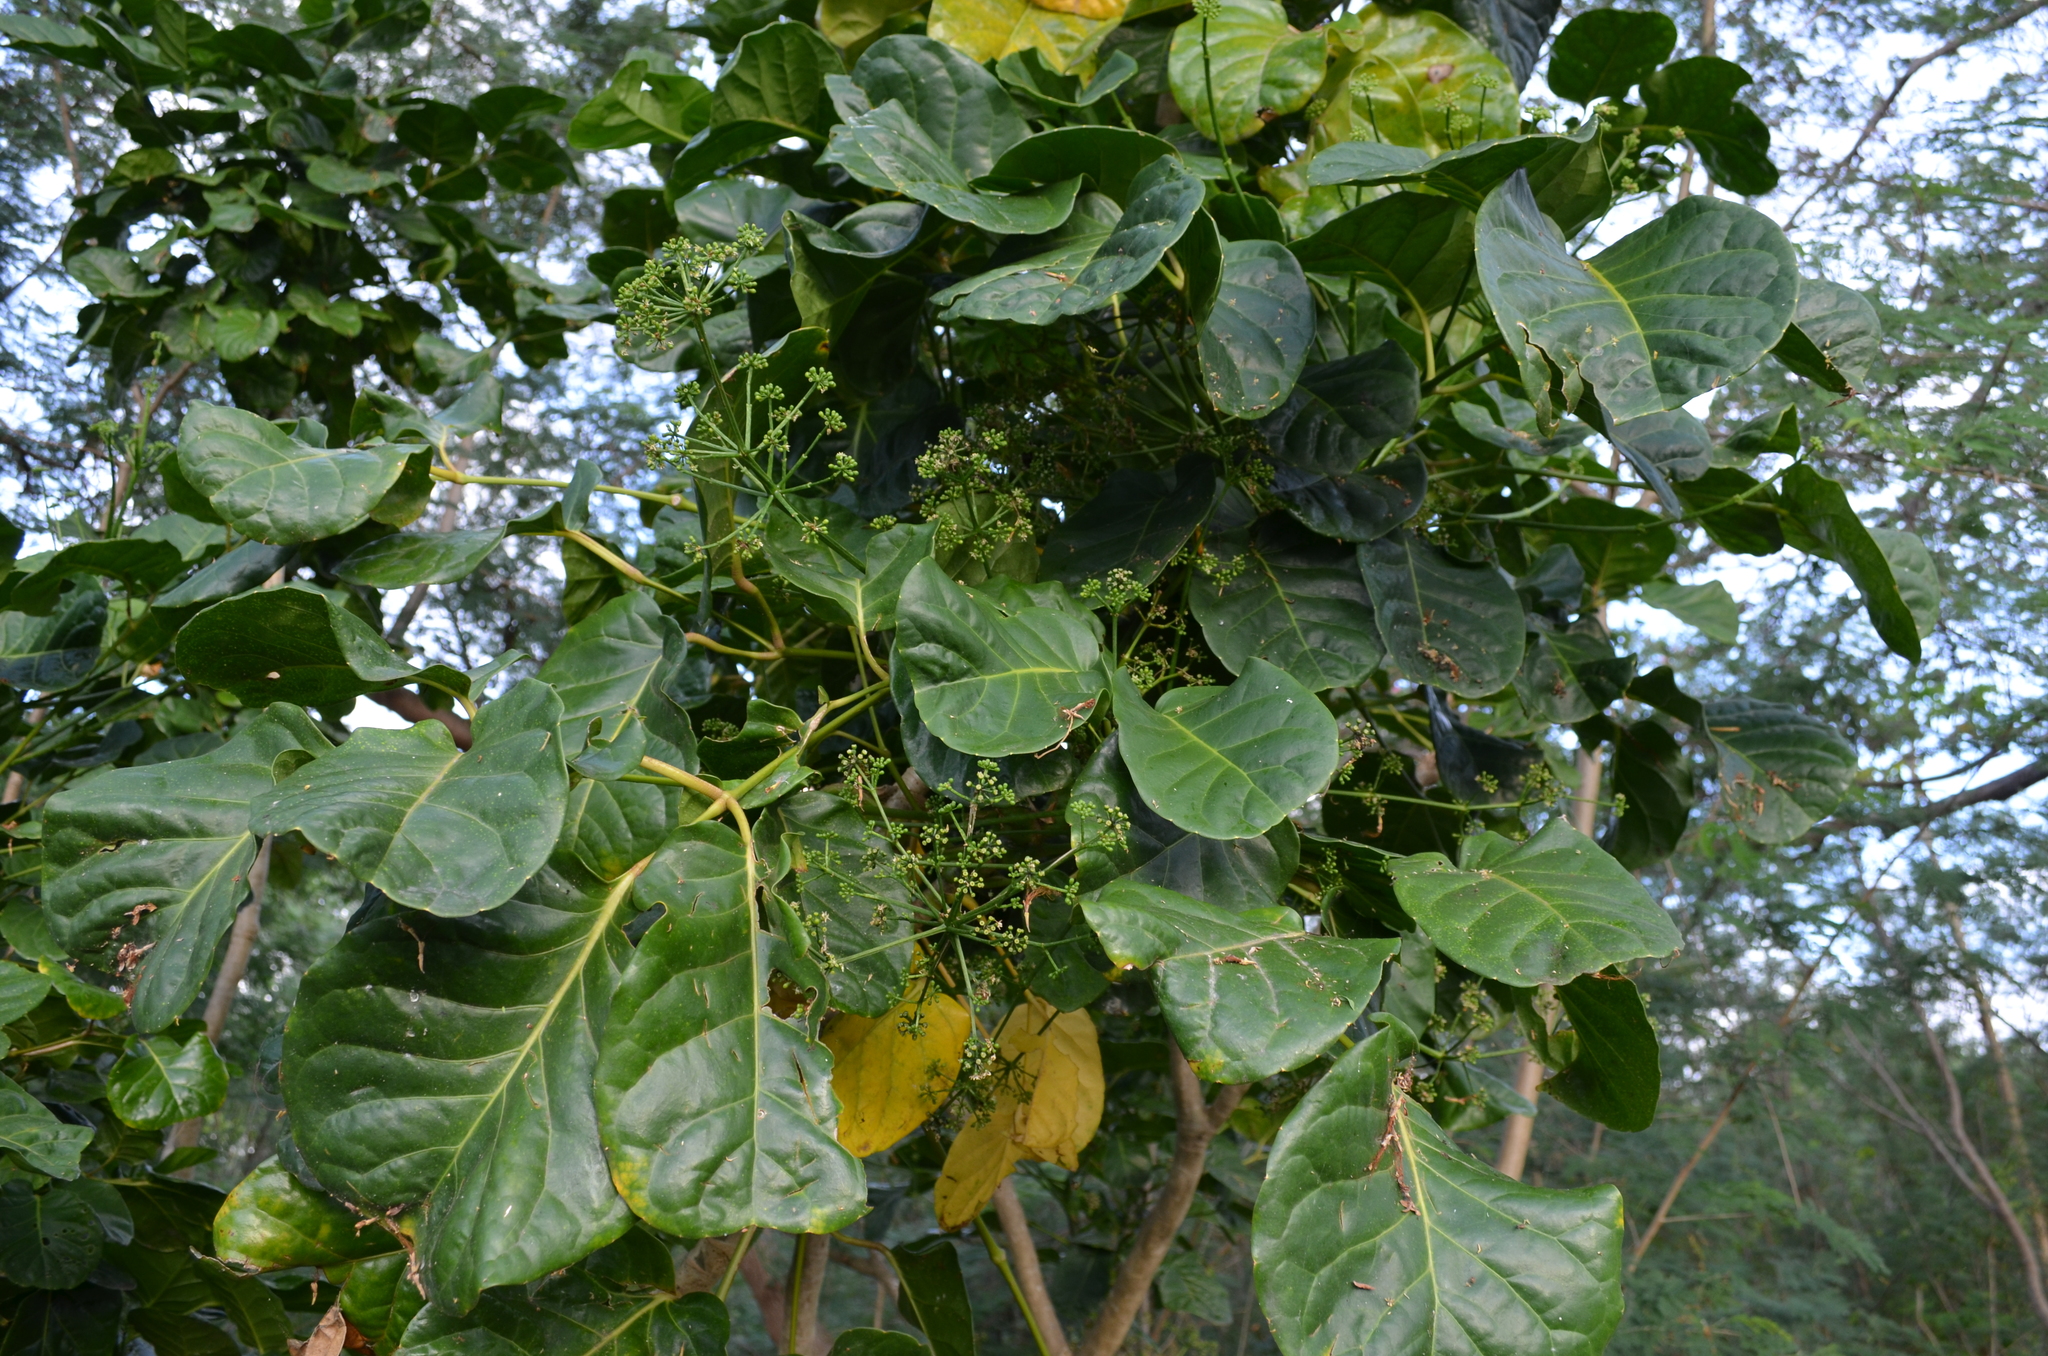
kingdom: Plantae
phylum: Tracheophyta
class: Magnoliopsida
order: Apiales
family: Araliaceae
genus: Polyscias
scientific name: Polyscias macgillivrayi
